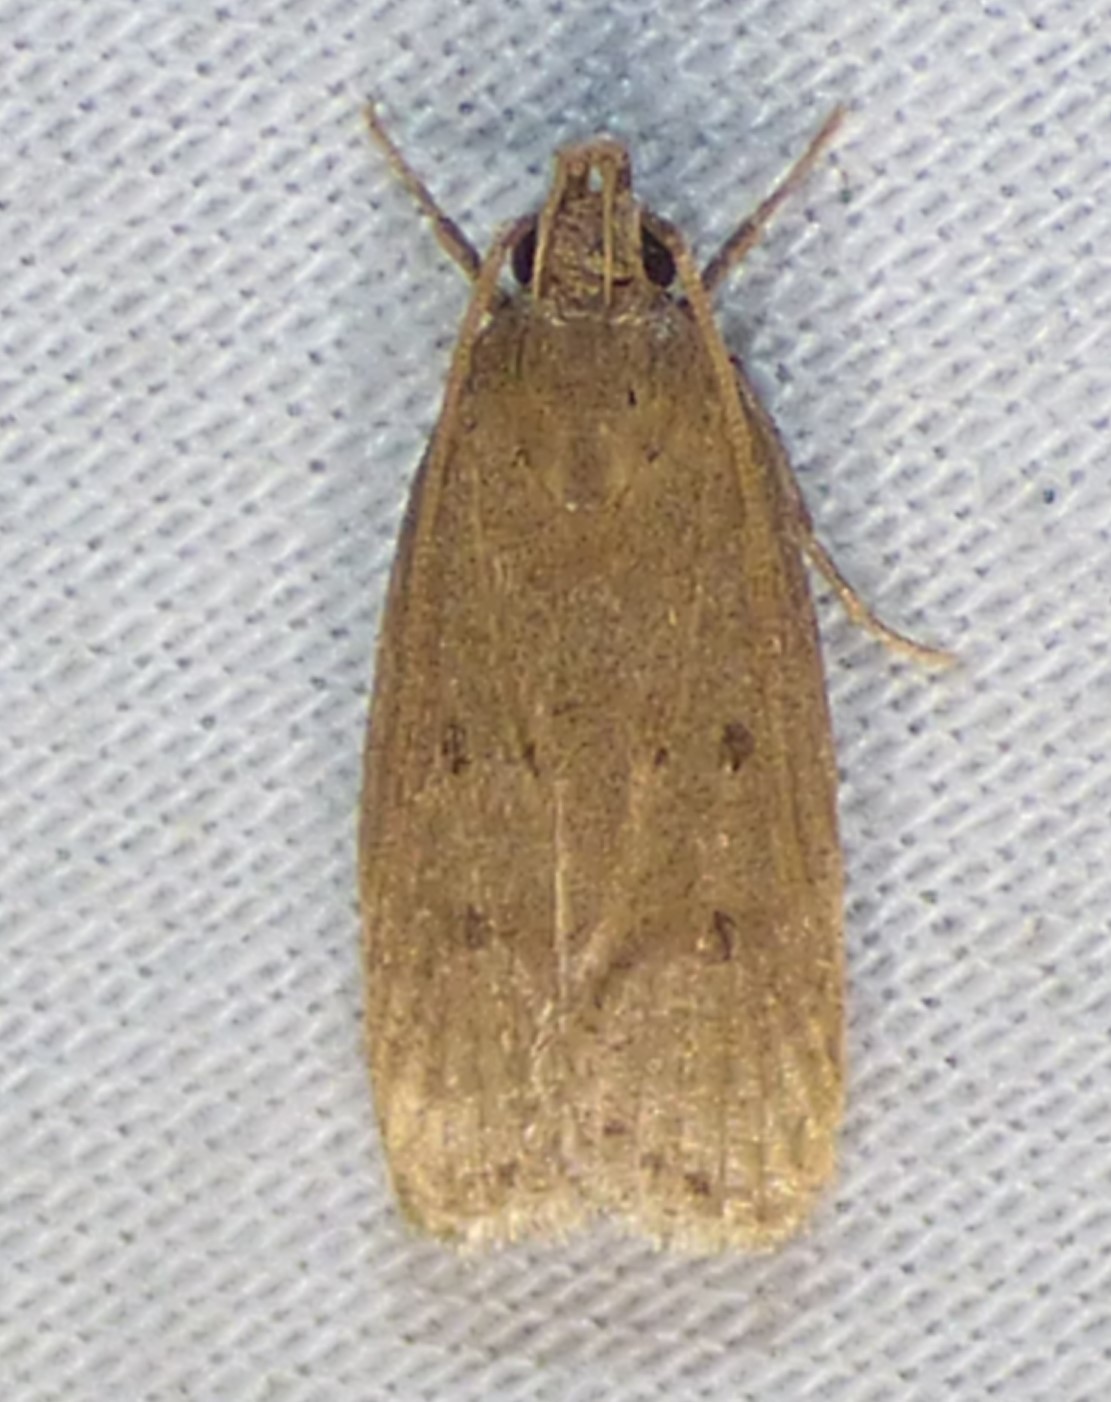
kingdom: Animalia
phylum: Arthropoda
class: Insecta
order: Lepidoptera
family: Autostichidae
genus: Autosticha
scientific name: Autosticha kyotensis
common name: Kyoto moth
